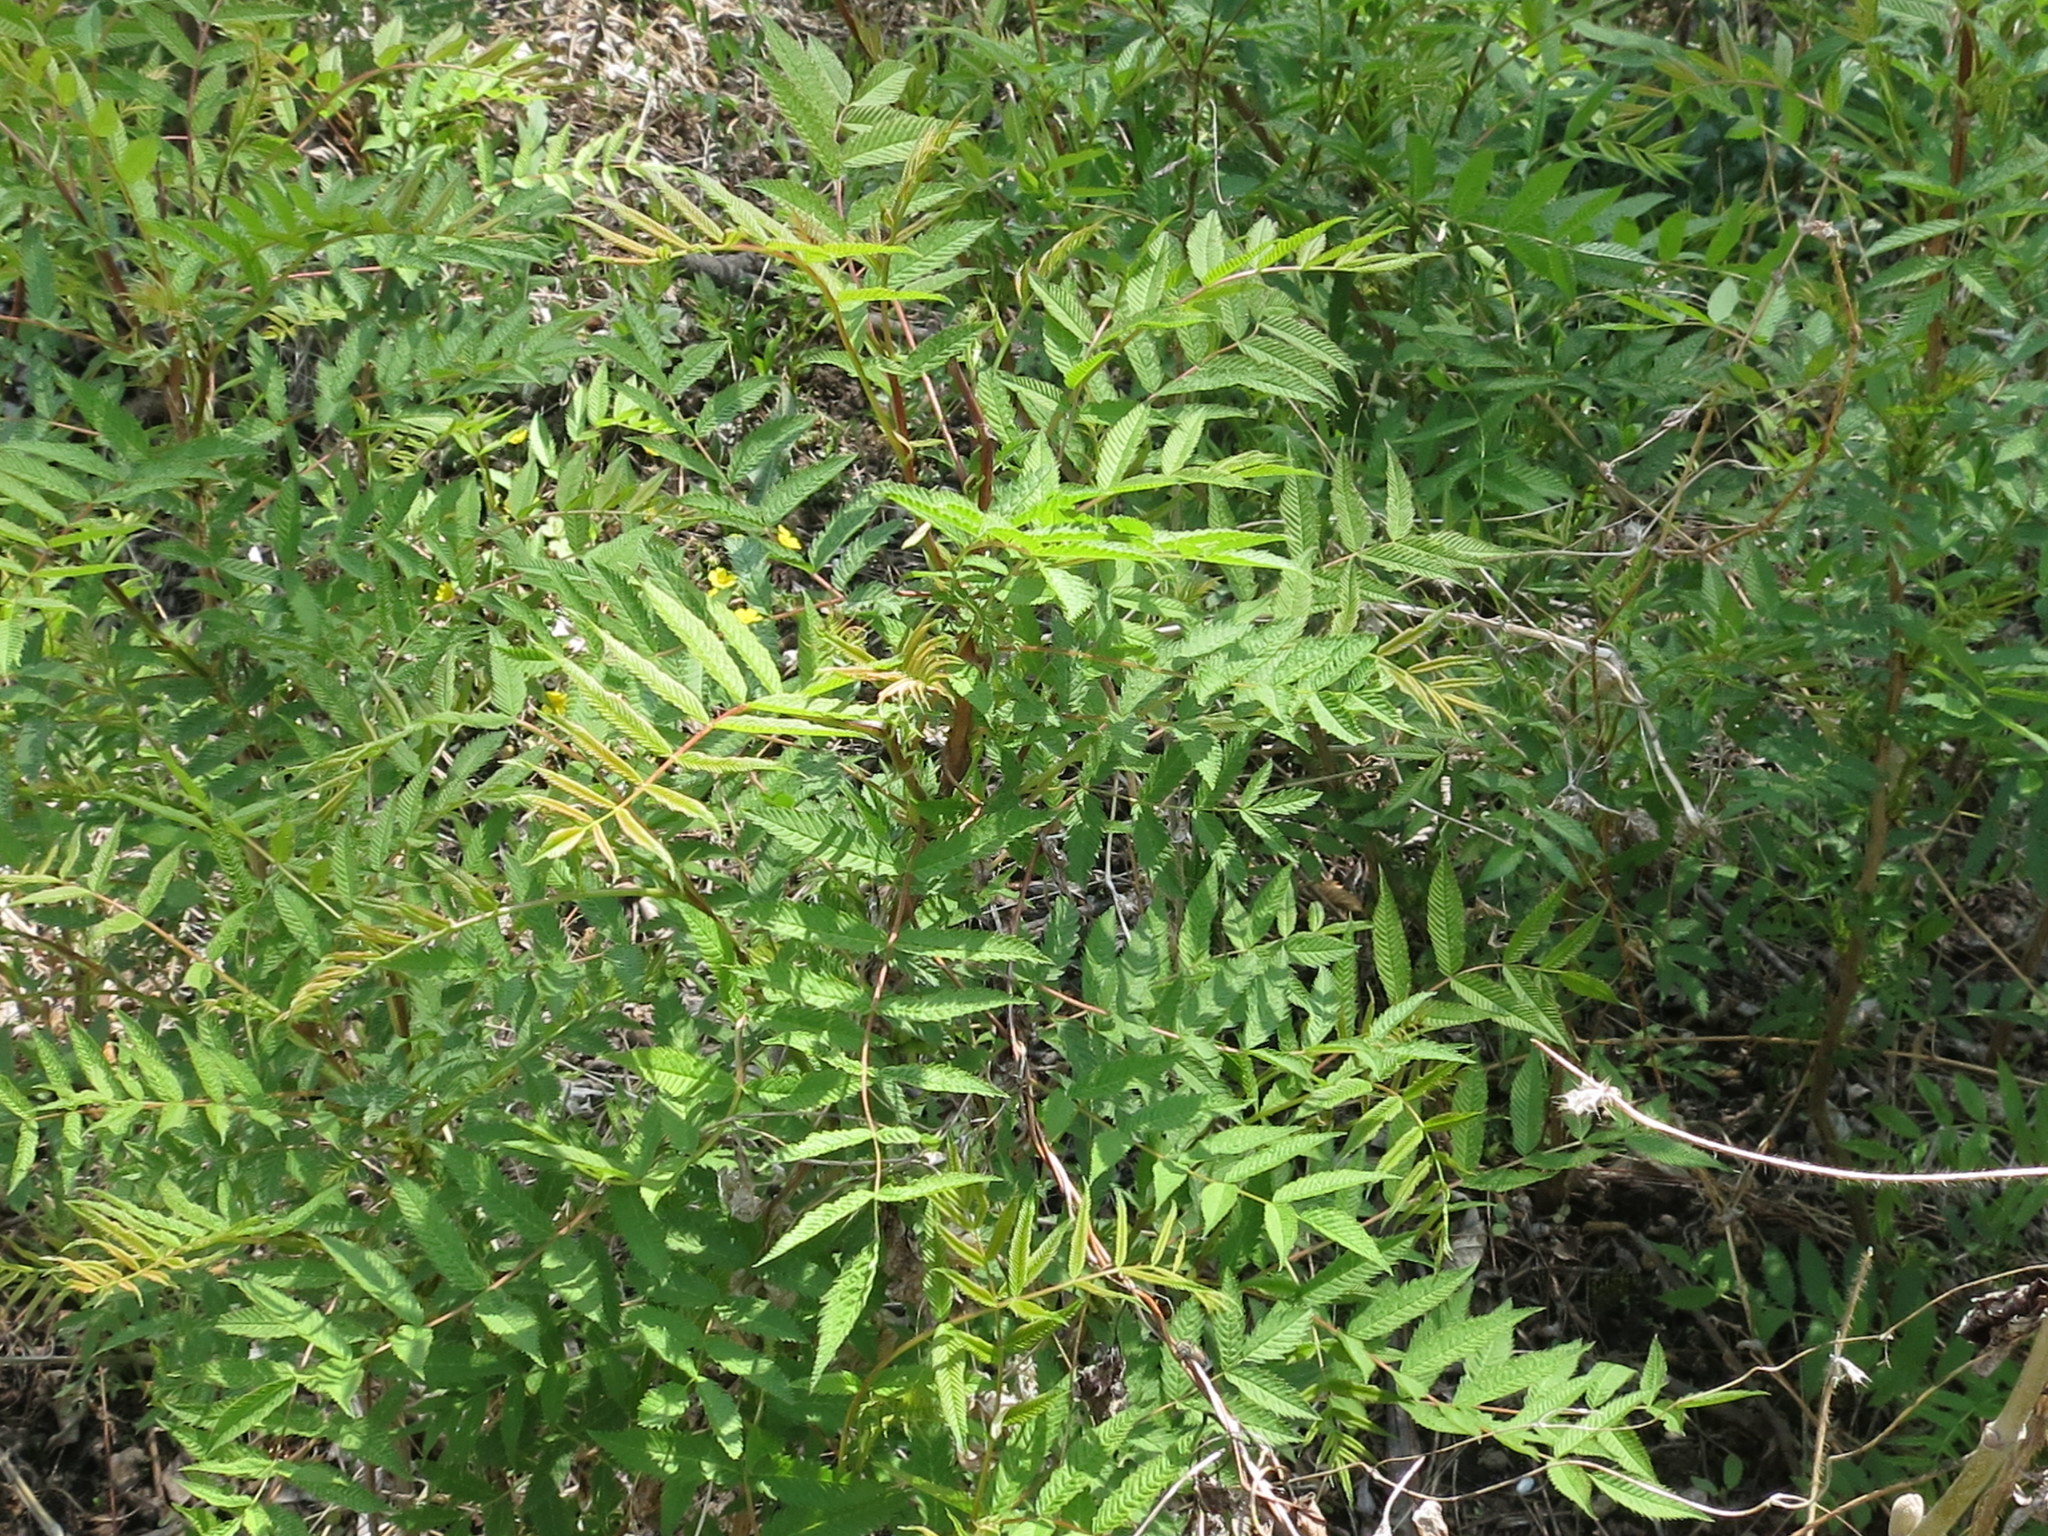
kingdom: Plantae
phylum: Tracheophyta
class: Magnoliopsida
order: Rosales
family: Rosaceae
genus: Sorbaria
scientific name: Sorbaria sorbifolia
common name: False spiraea
